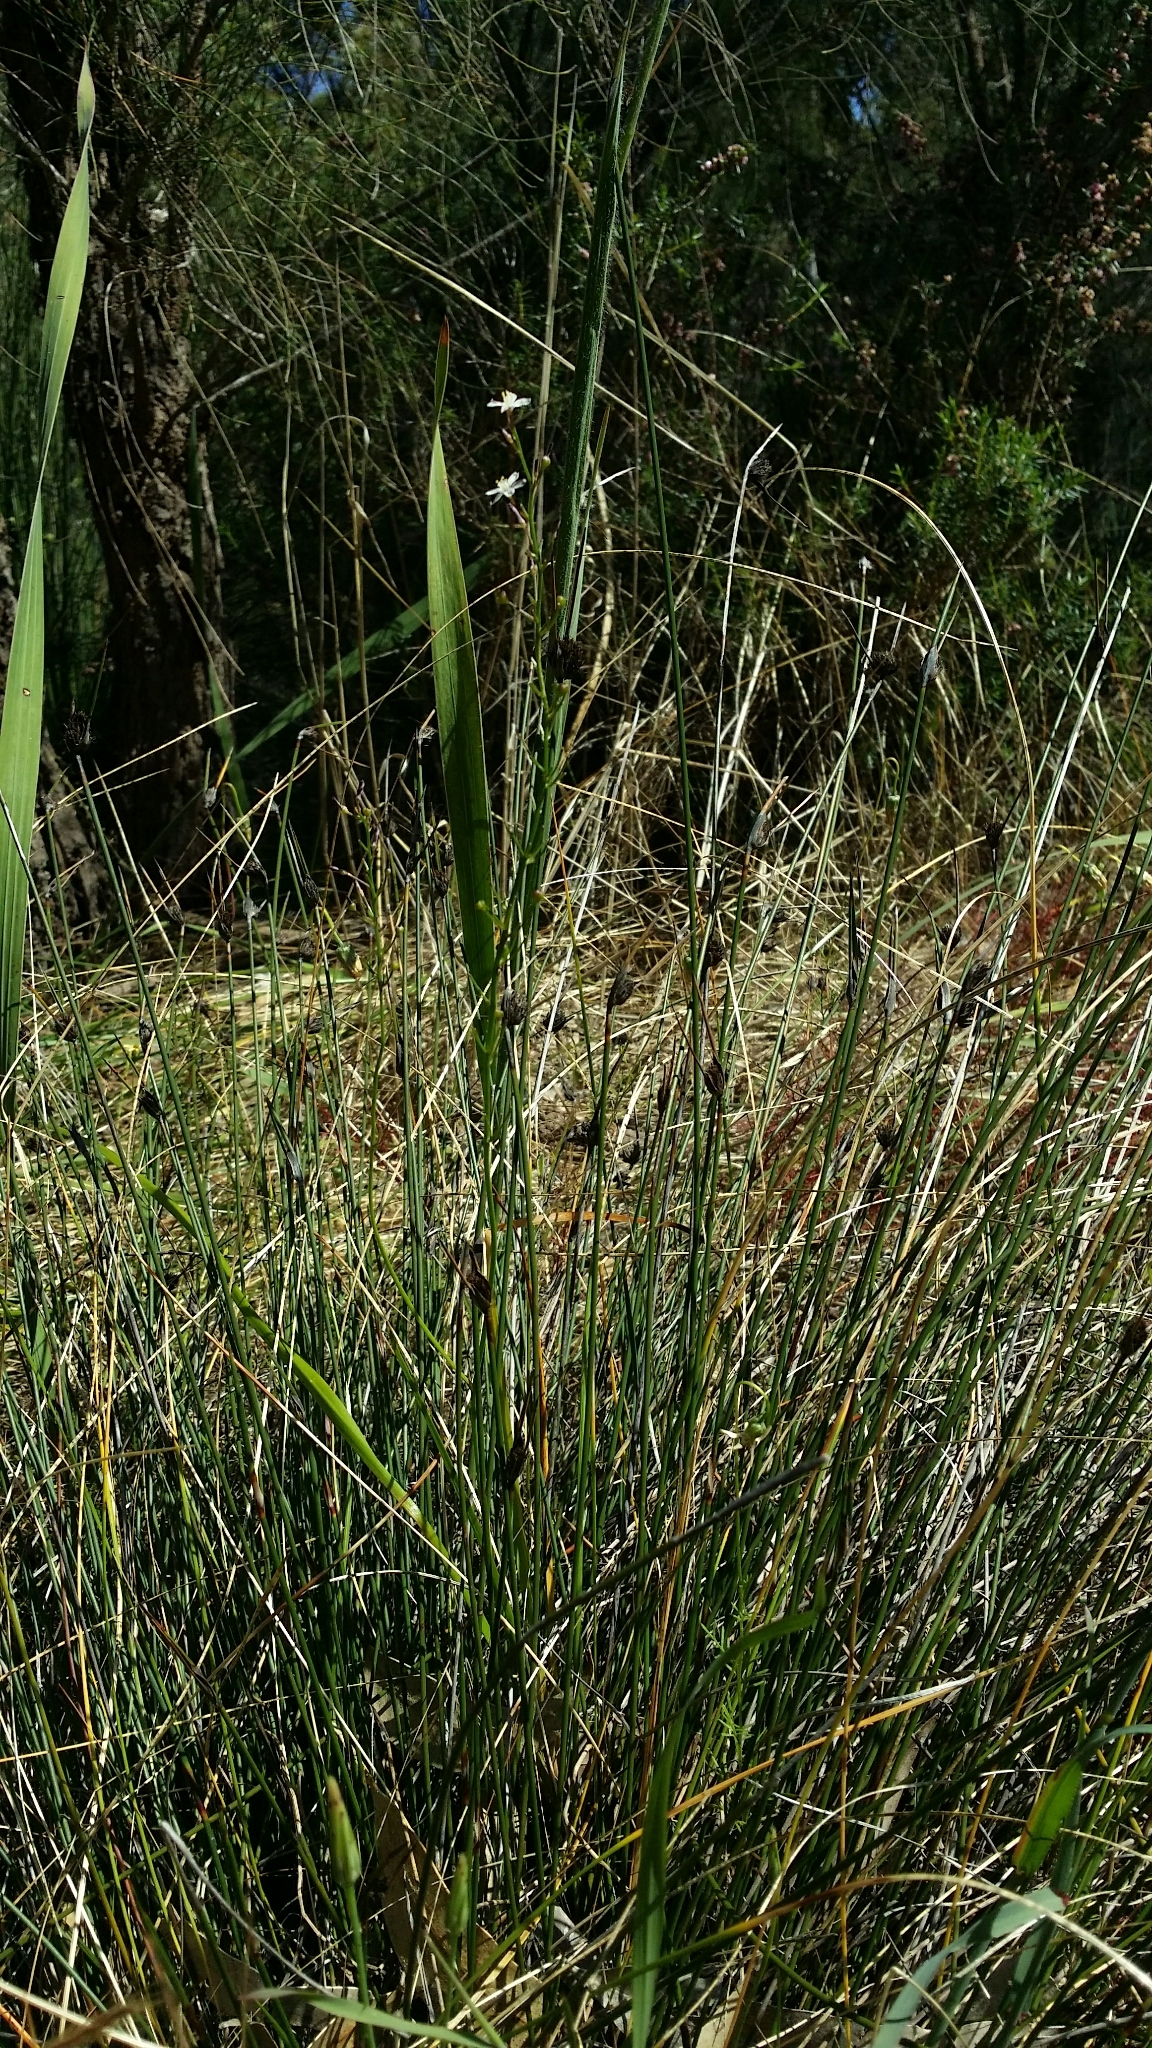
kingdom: Plantae
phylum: Tracheophyta
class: Liliopsida
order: Asparagales
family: Asphodelaceae
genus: Caesia
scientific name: Caesia micrantha
